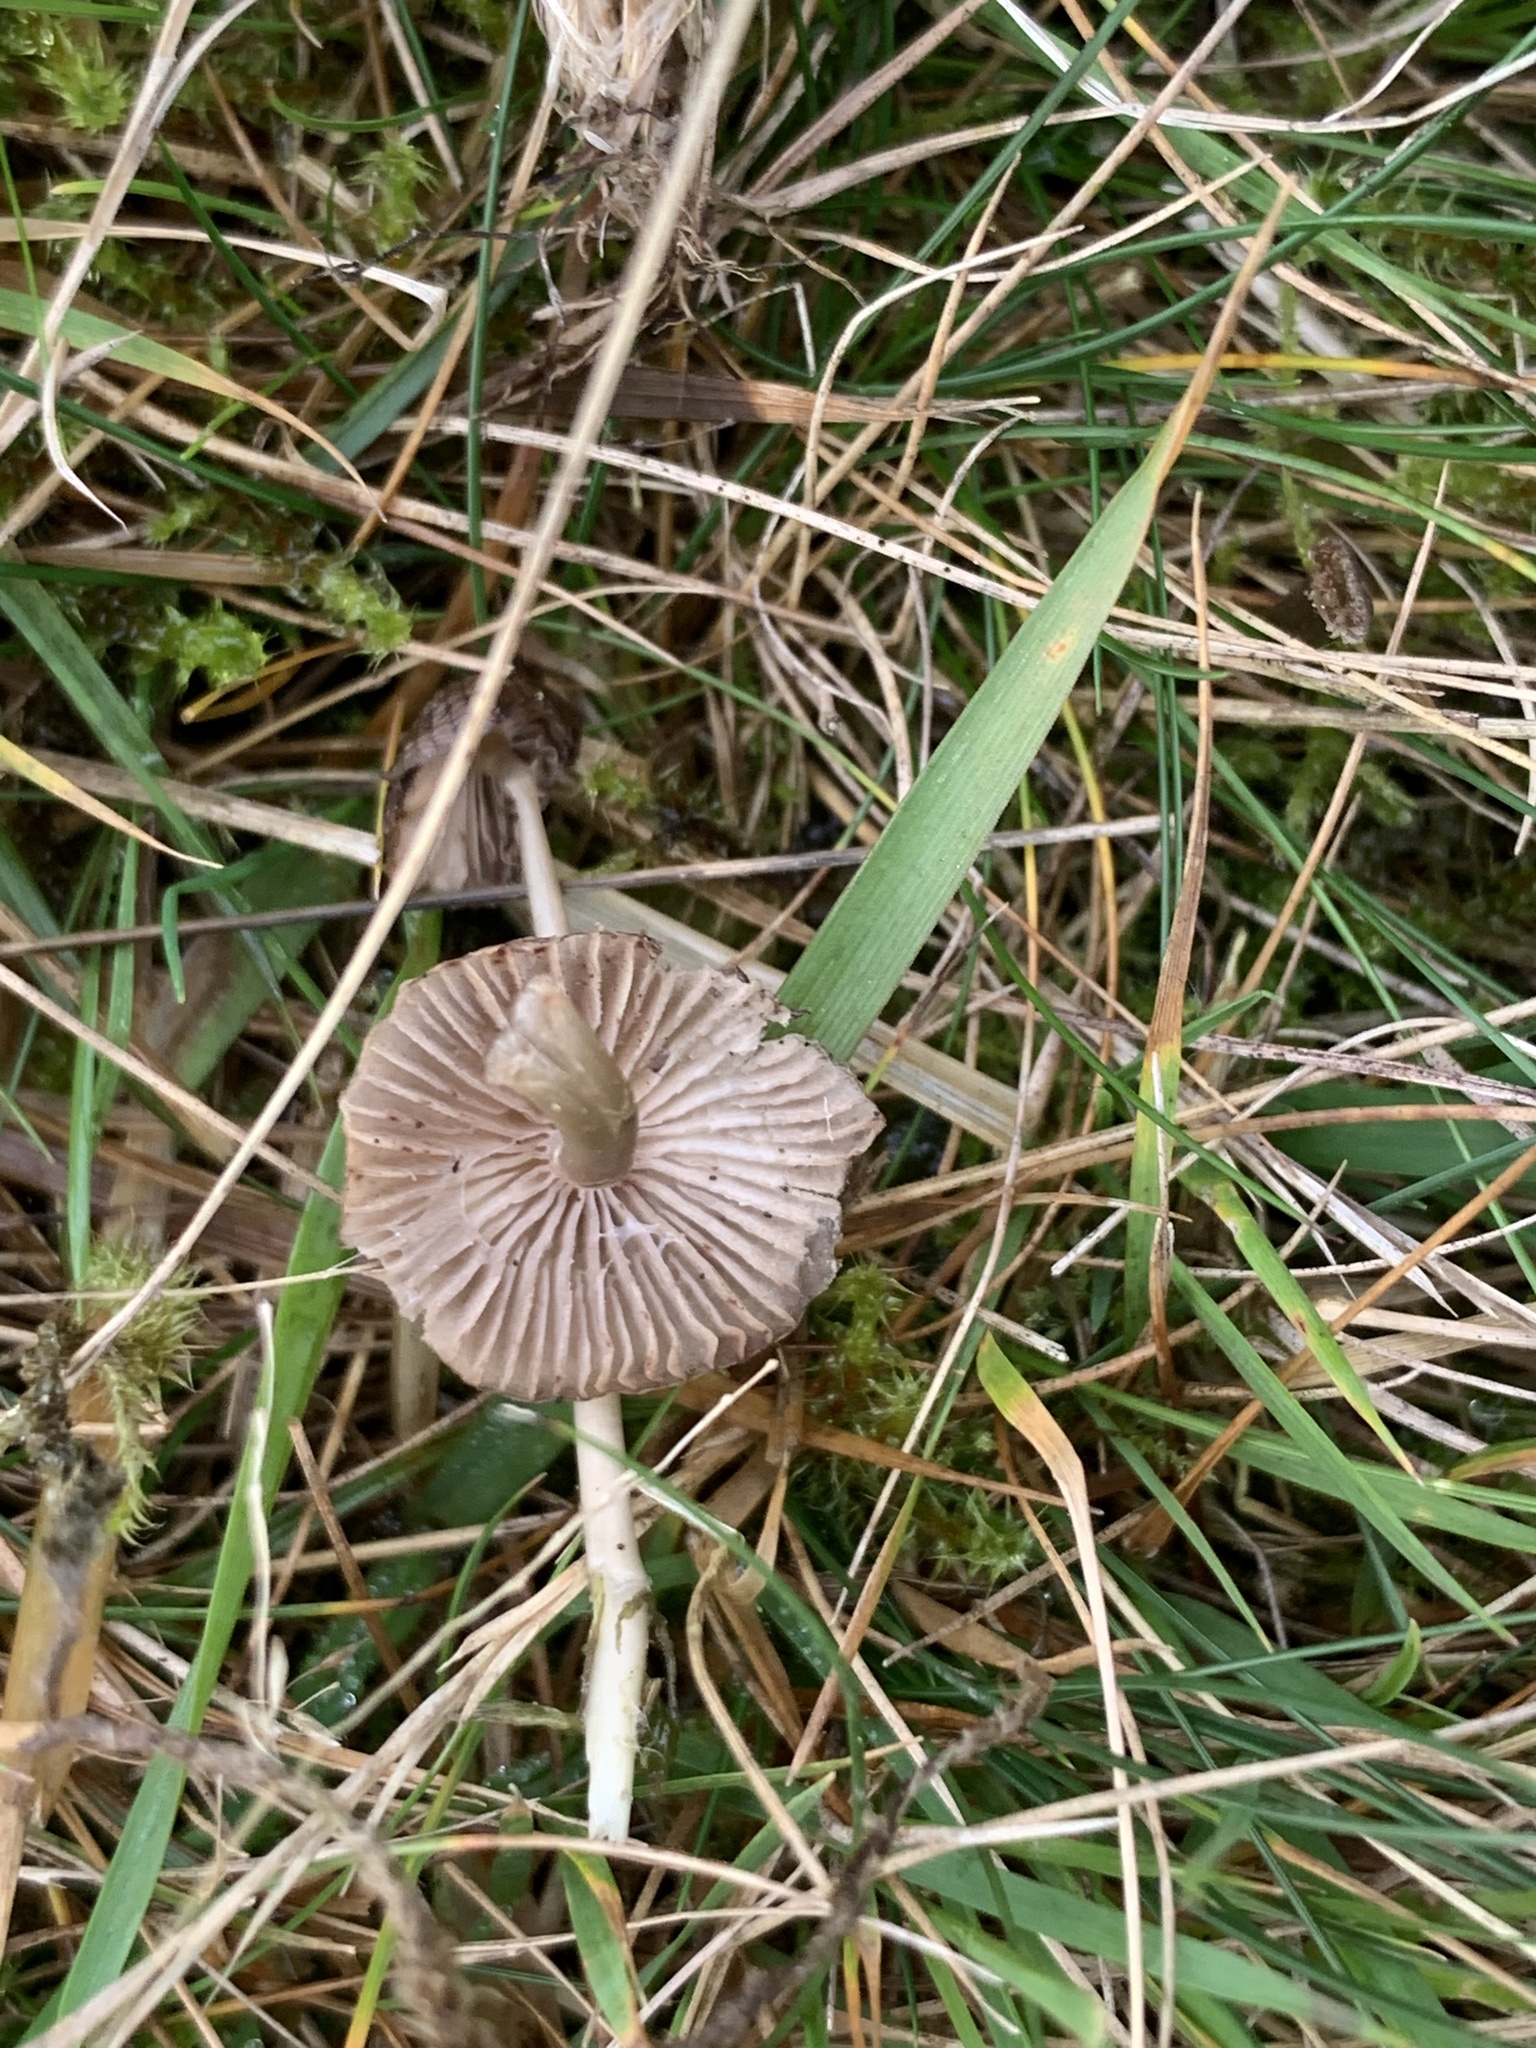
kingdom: Fungi
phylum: Basidiomycota
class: Agaricomycetes
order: Agaricales
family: Hygrophoraceae
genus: Gliophorus
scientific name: Gliophorus irrigatus
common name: Slimy waxcap
